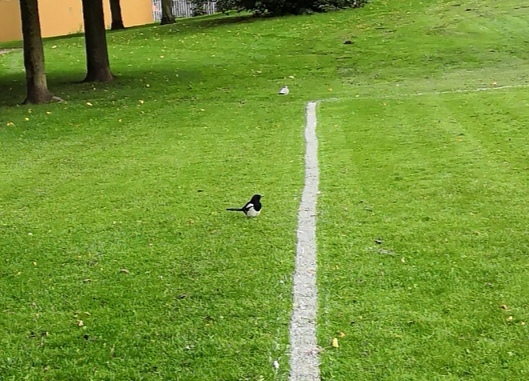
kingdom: Animalia
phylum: Chordata
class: Aves
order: Passeriformes
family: Corvidae
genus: Pica
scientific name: Pica pica
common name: Eurasian magpie
